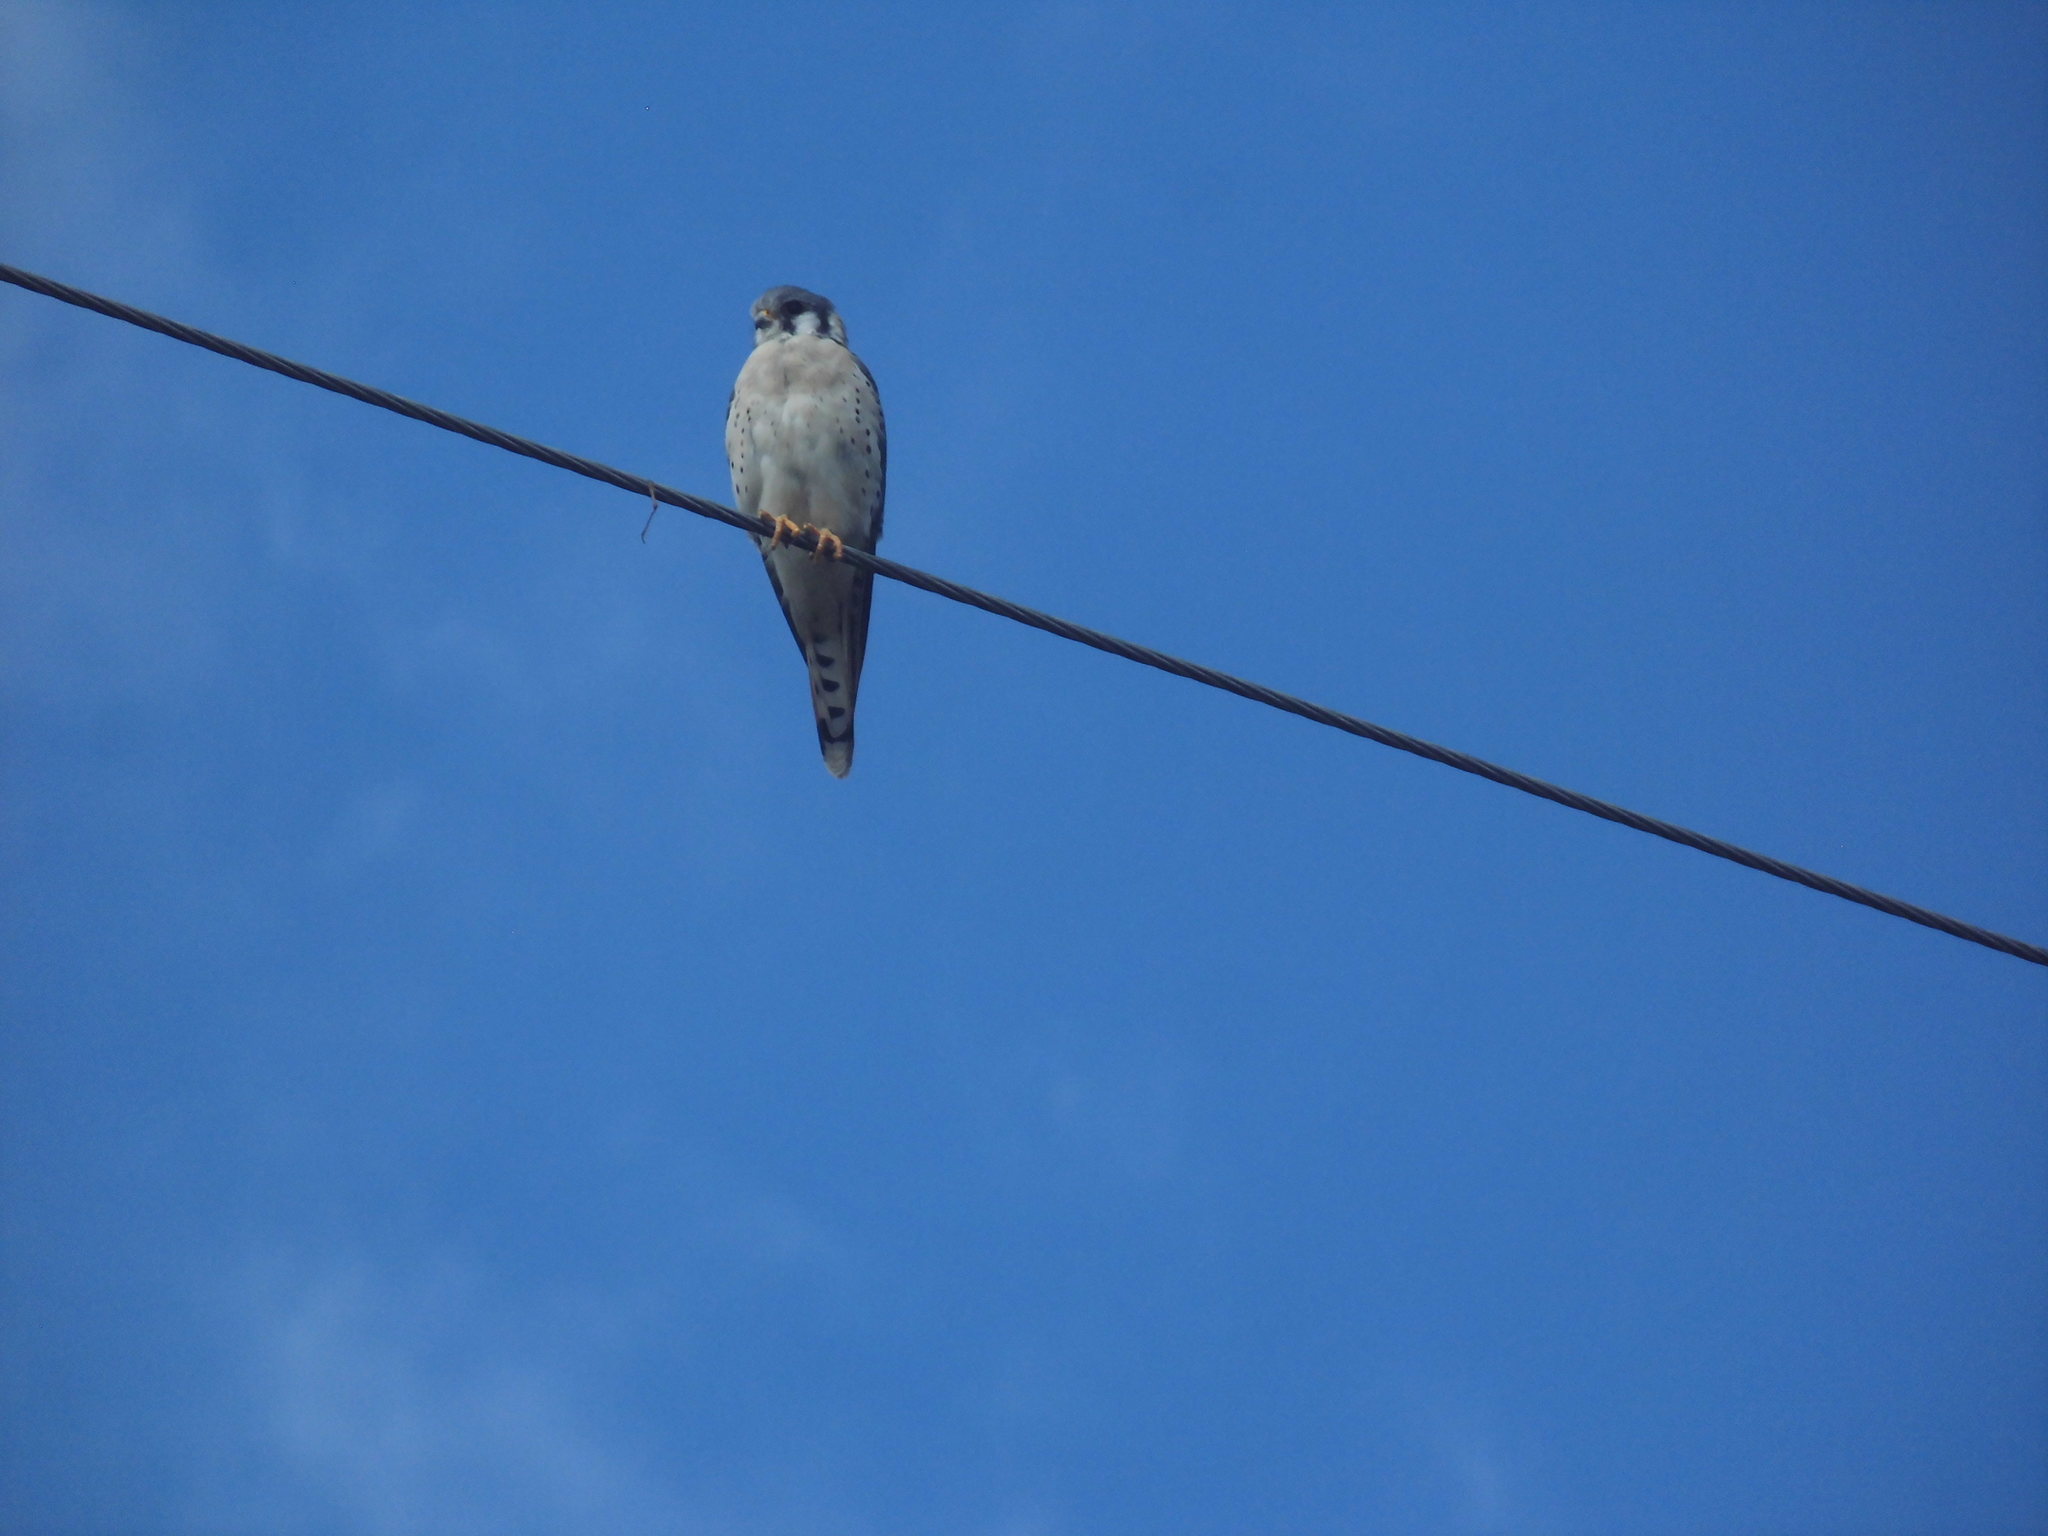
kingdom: Animalia
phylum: Chordata
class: Aves
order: Falconiformes
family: Falconidae
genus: Falco
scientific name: Falco sparverius
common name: American kestrel
